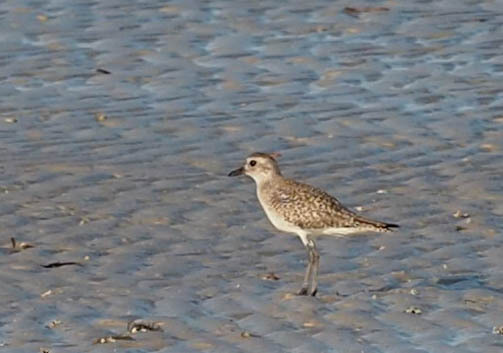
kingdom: Animalia
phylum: Chordata
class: Aves
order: Charadriiformes
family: Charadriidae
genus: Pluvialis
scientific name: Pluvialis squatarola
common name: Grey plover
